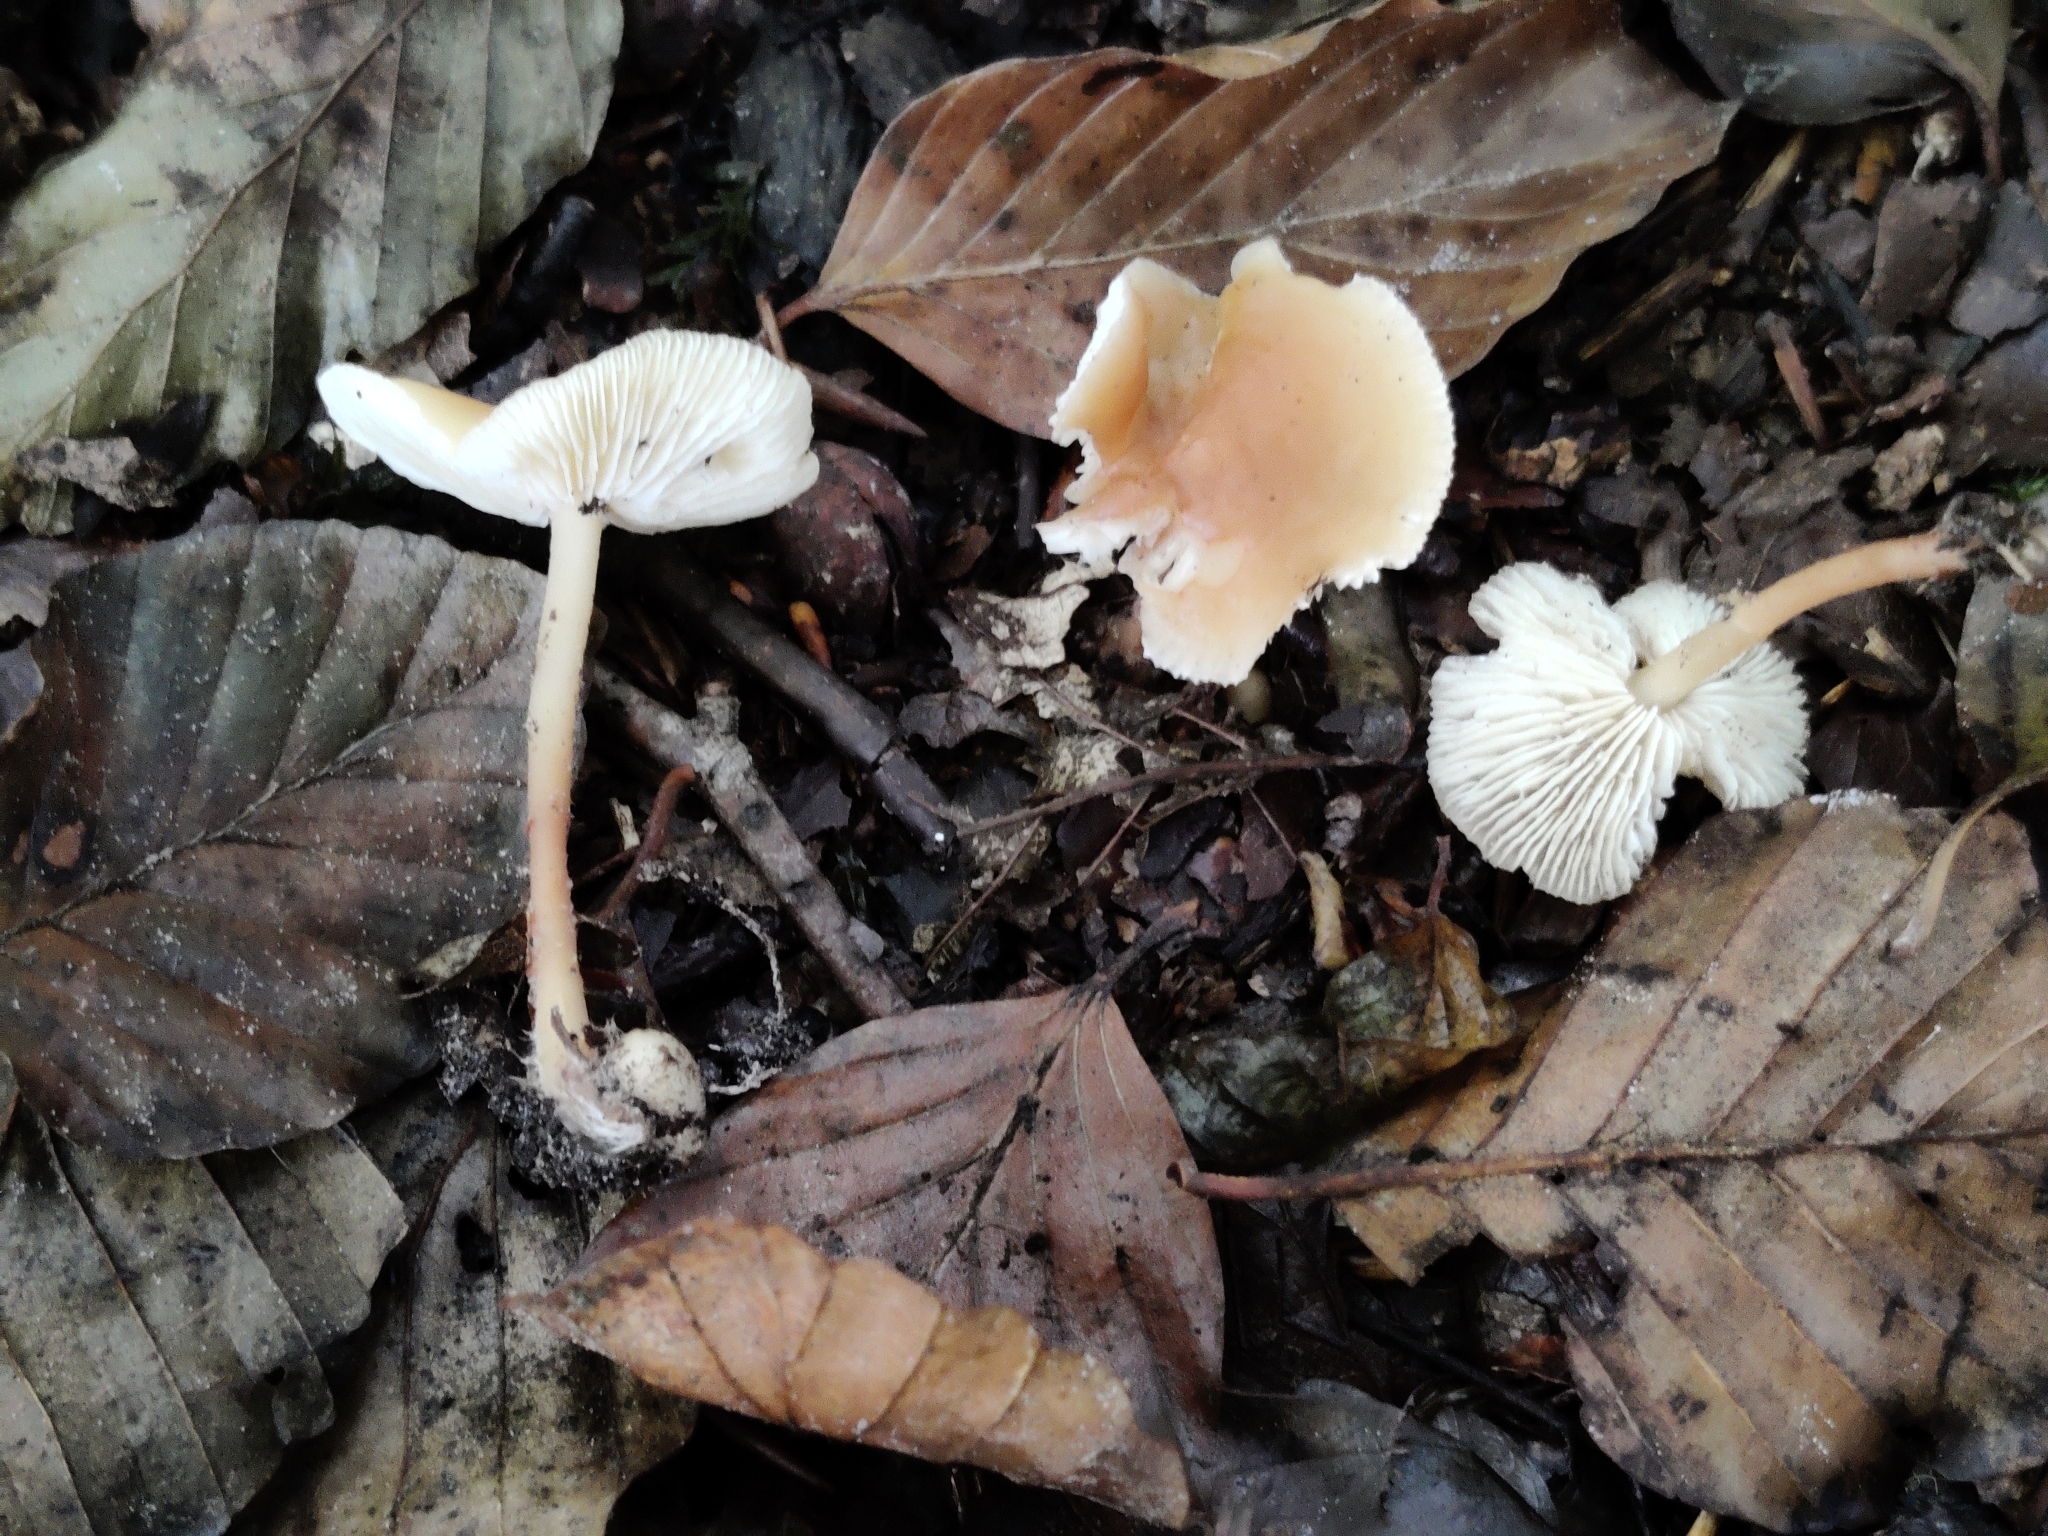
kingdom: Fungi
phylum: Basidiomycota
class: Agaricomycetes
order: Agaricales
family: Omphalotaceae
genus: Gymnopus
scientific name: Gymnopus dryophilus
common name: Penny top
